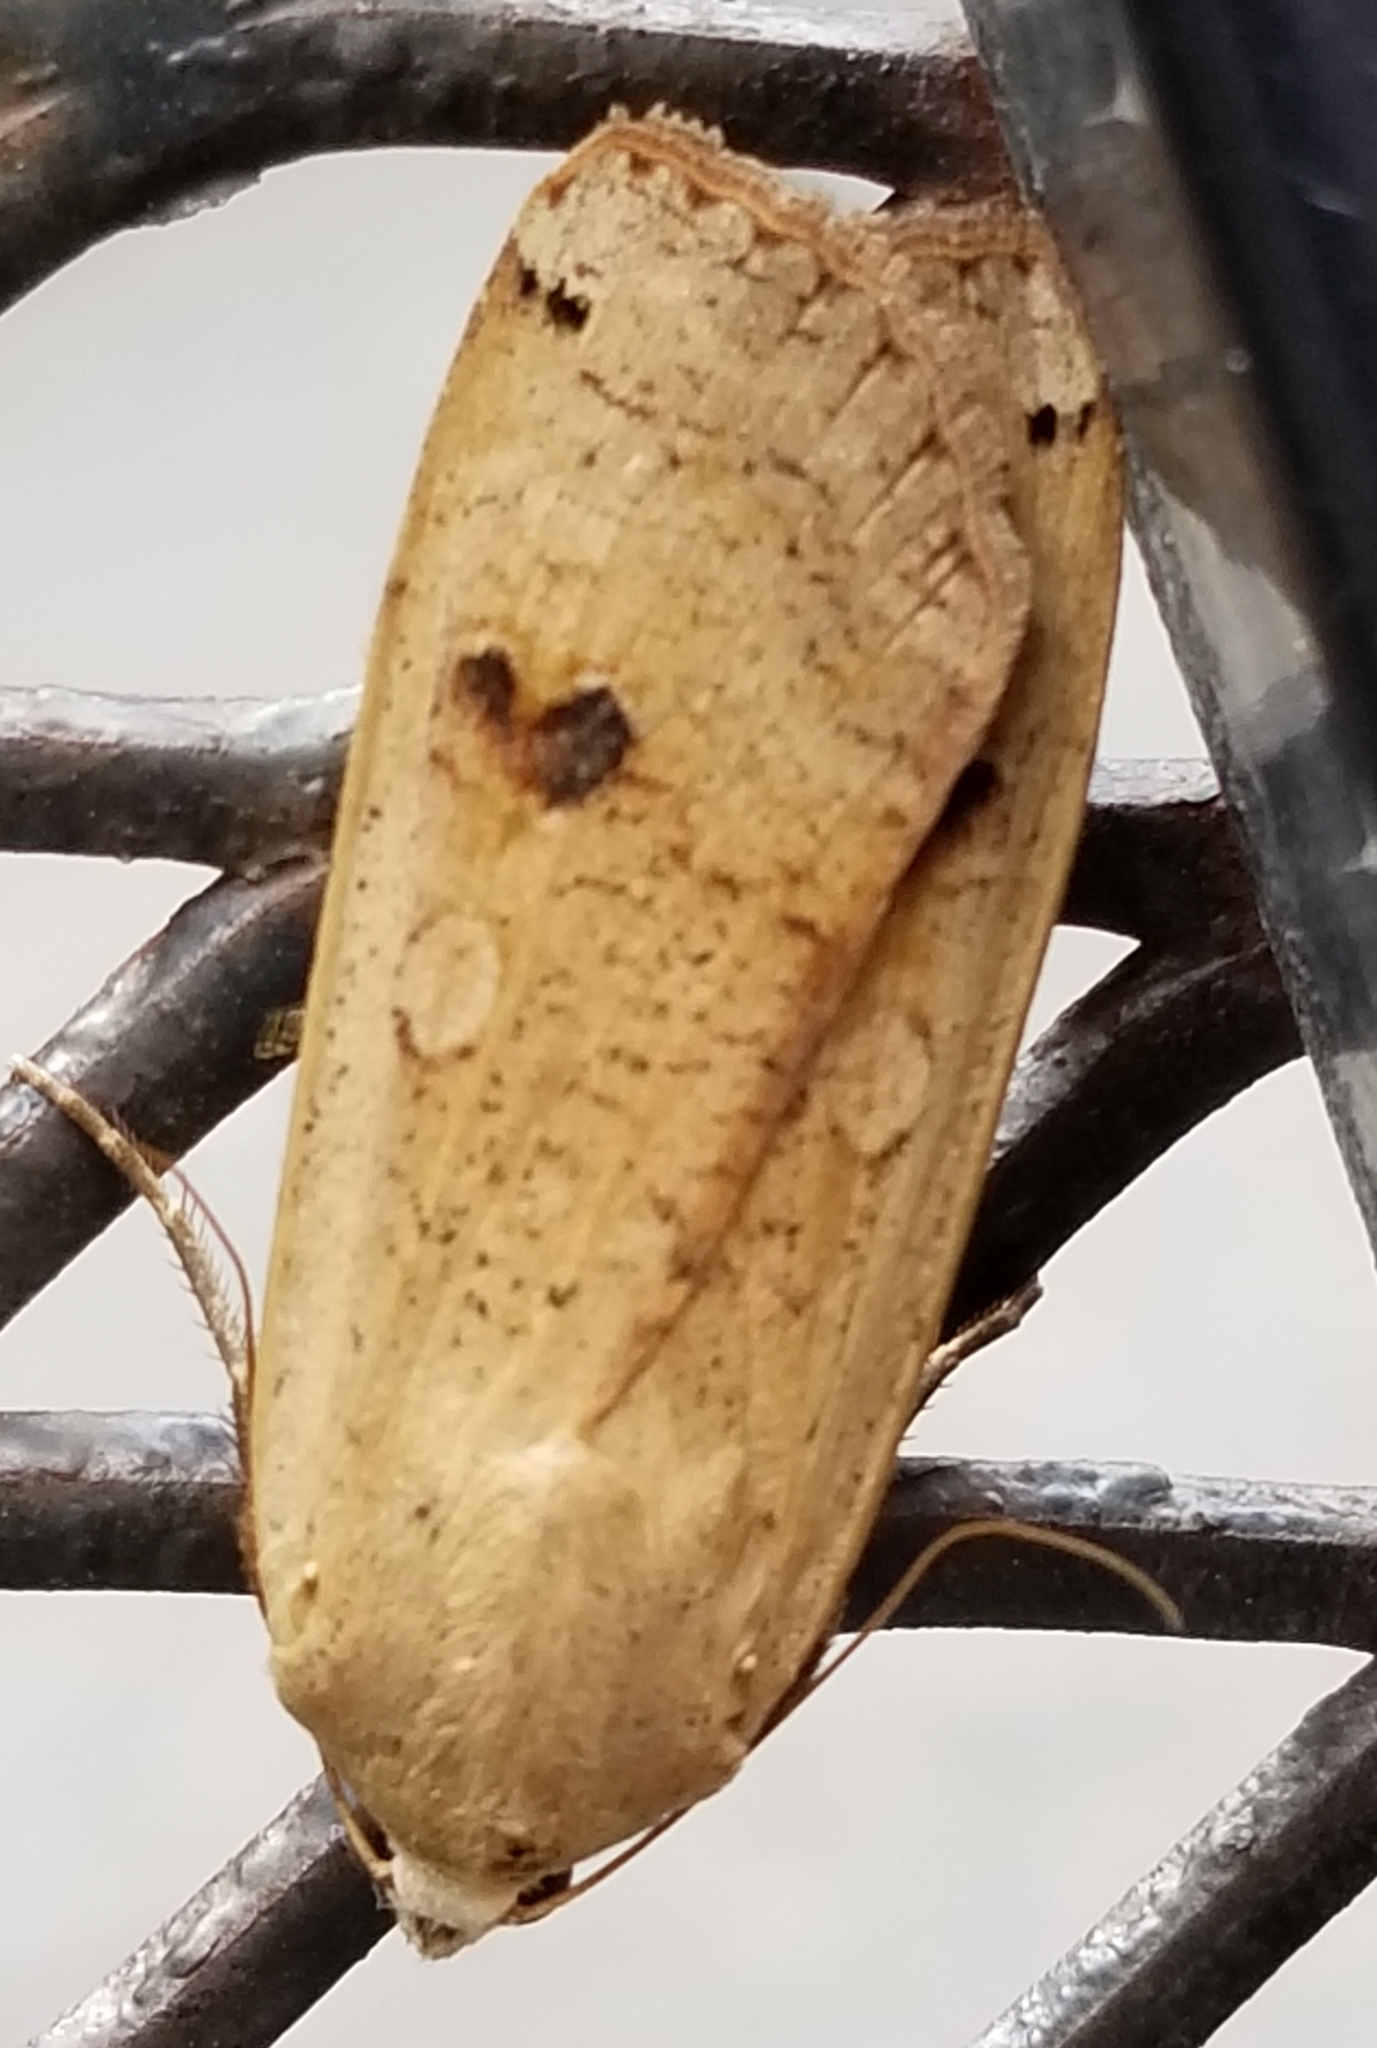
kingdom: Animalia
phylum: Arthropoda
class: Insecta
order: Lepidoptera
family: Noctuidae
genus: Noctua
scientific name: Noctua pronuba
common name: Large yellow underwing
